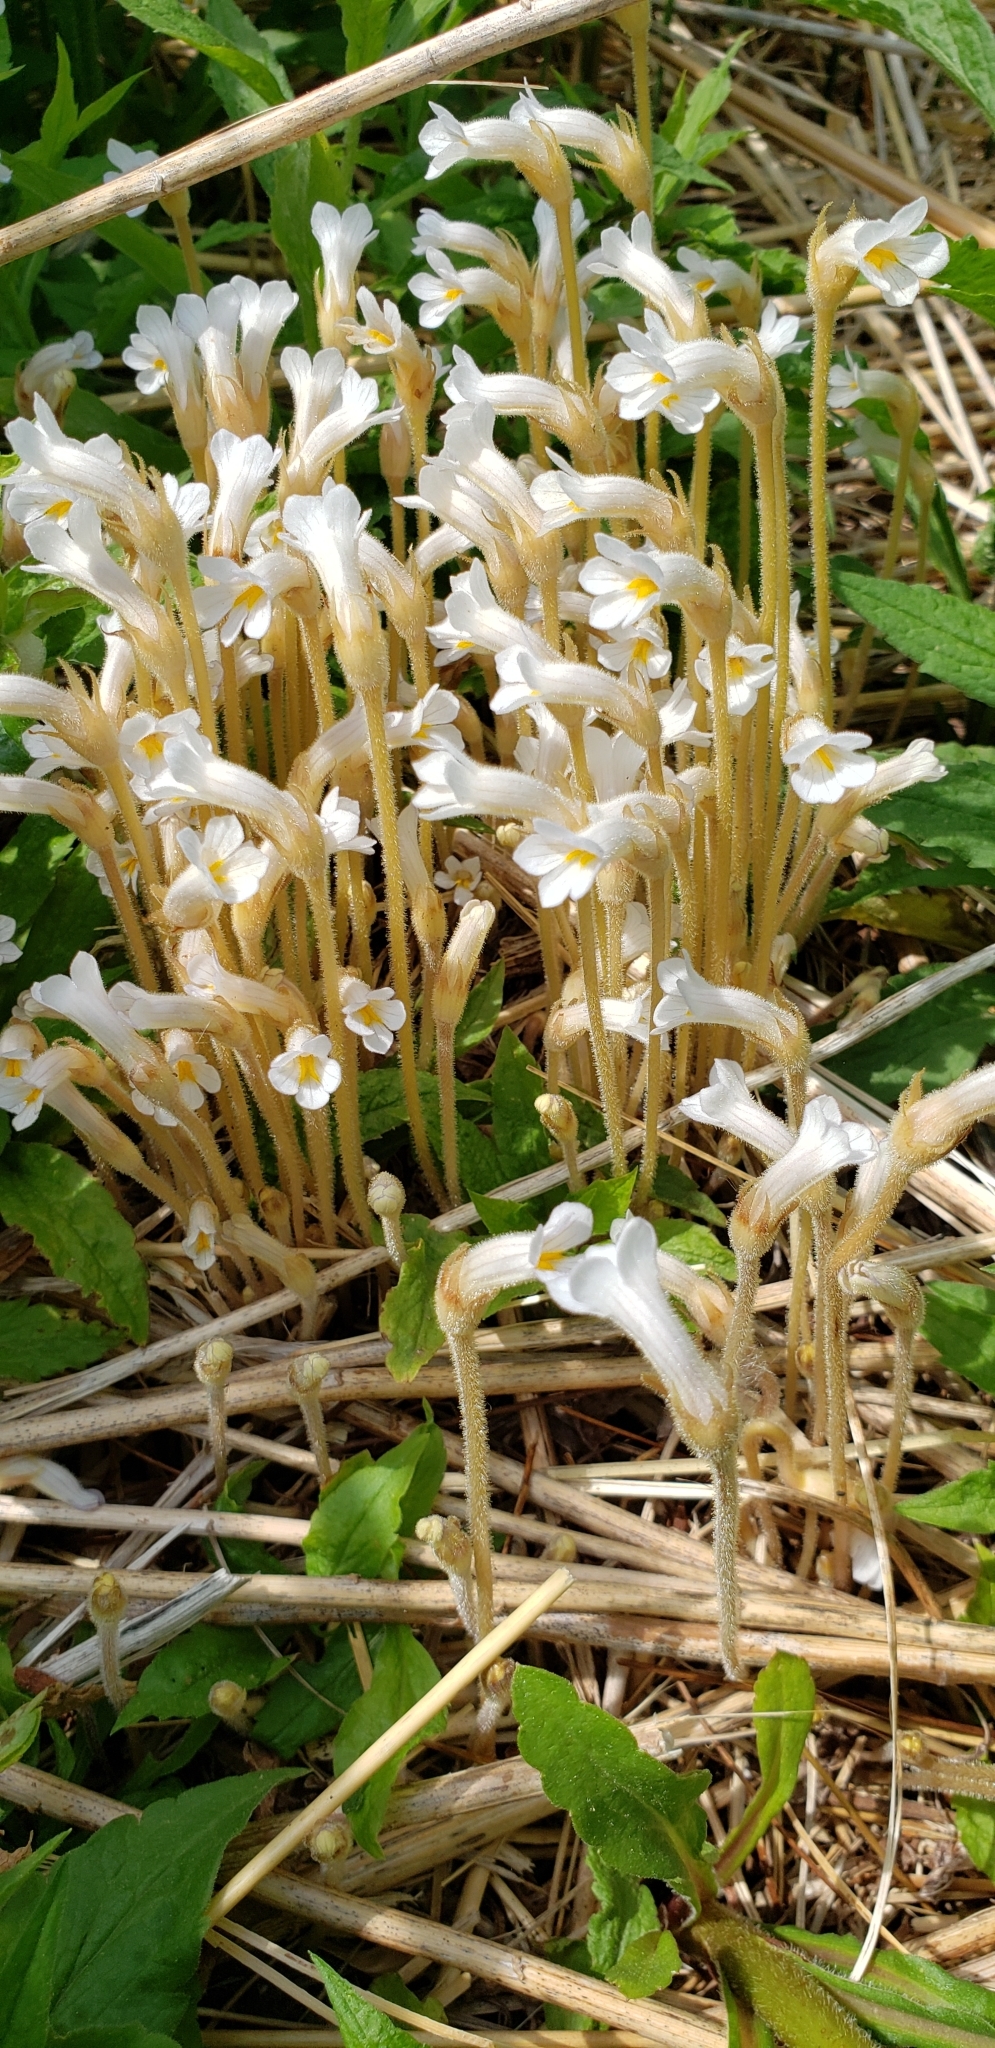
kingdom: Plantae
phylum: Tracheophyta
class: Magnoliopsida
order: Lamiales
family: Orobanchaceae
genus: Aphyllon
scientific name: Aphyllon uniflorum
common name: One-flowered broomrape
